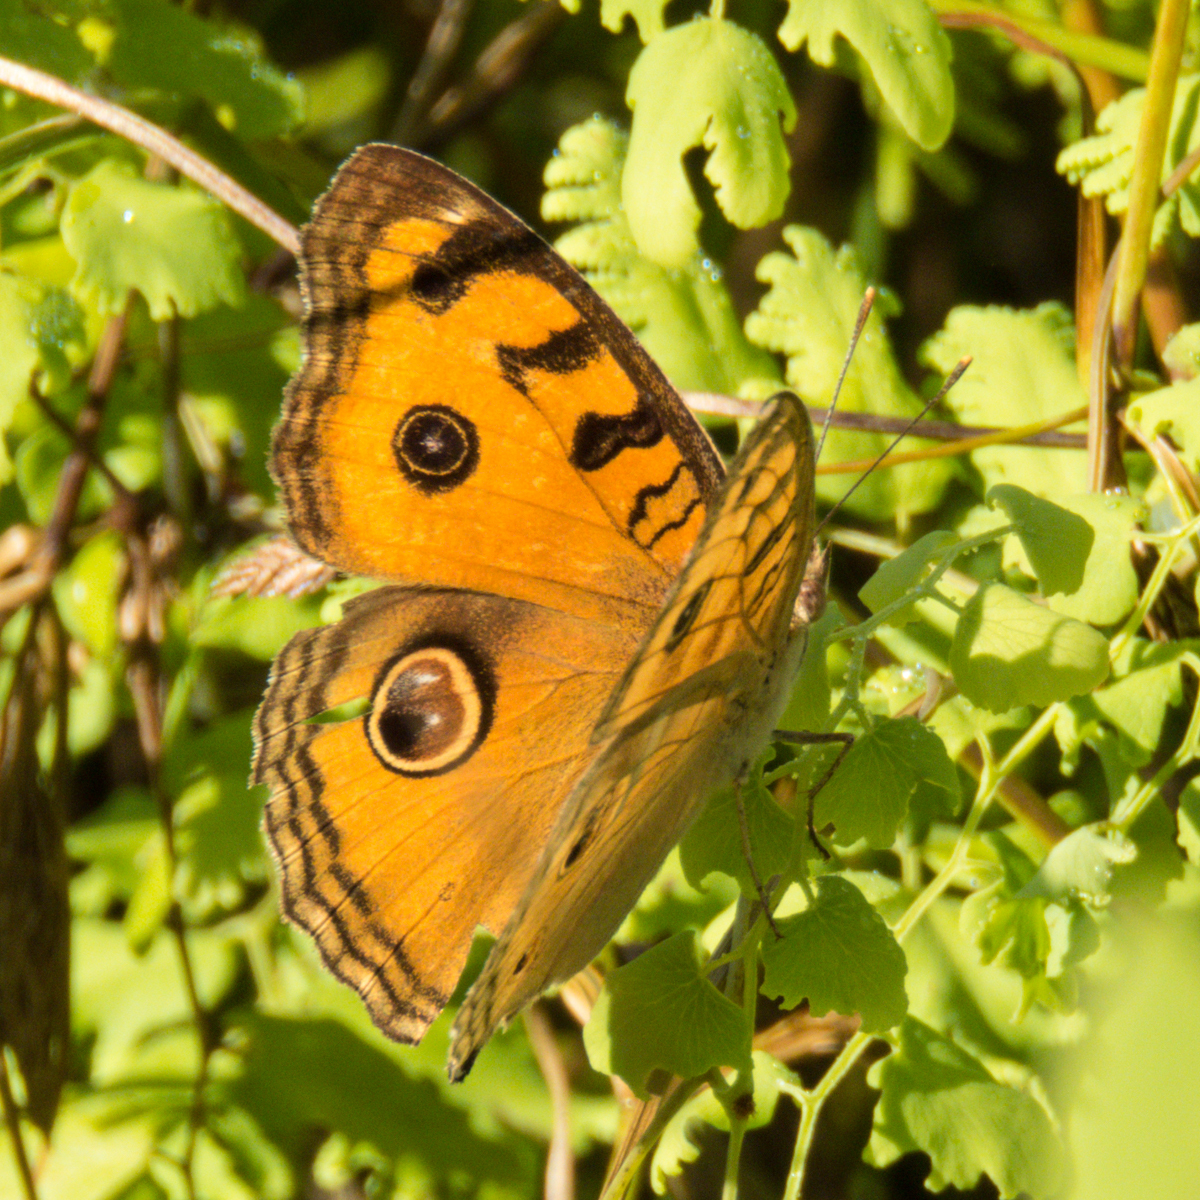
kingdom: Animalia
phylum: Arthropoda
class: Insecta
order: Lepidoptera
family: Nymphalidae
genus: Junonia
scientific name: Junonia almana
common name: Peacock pansy
